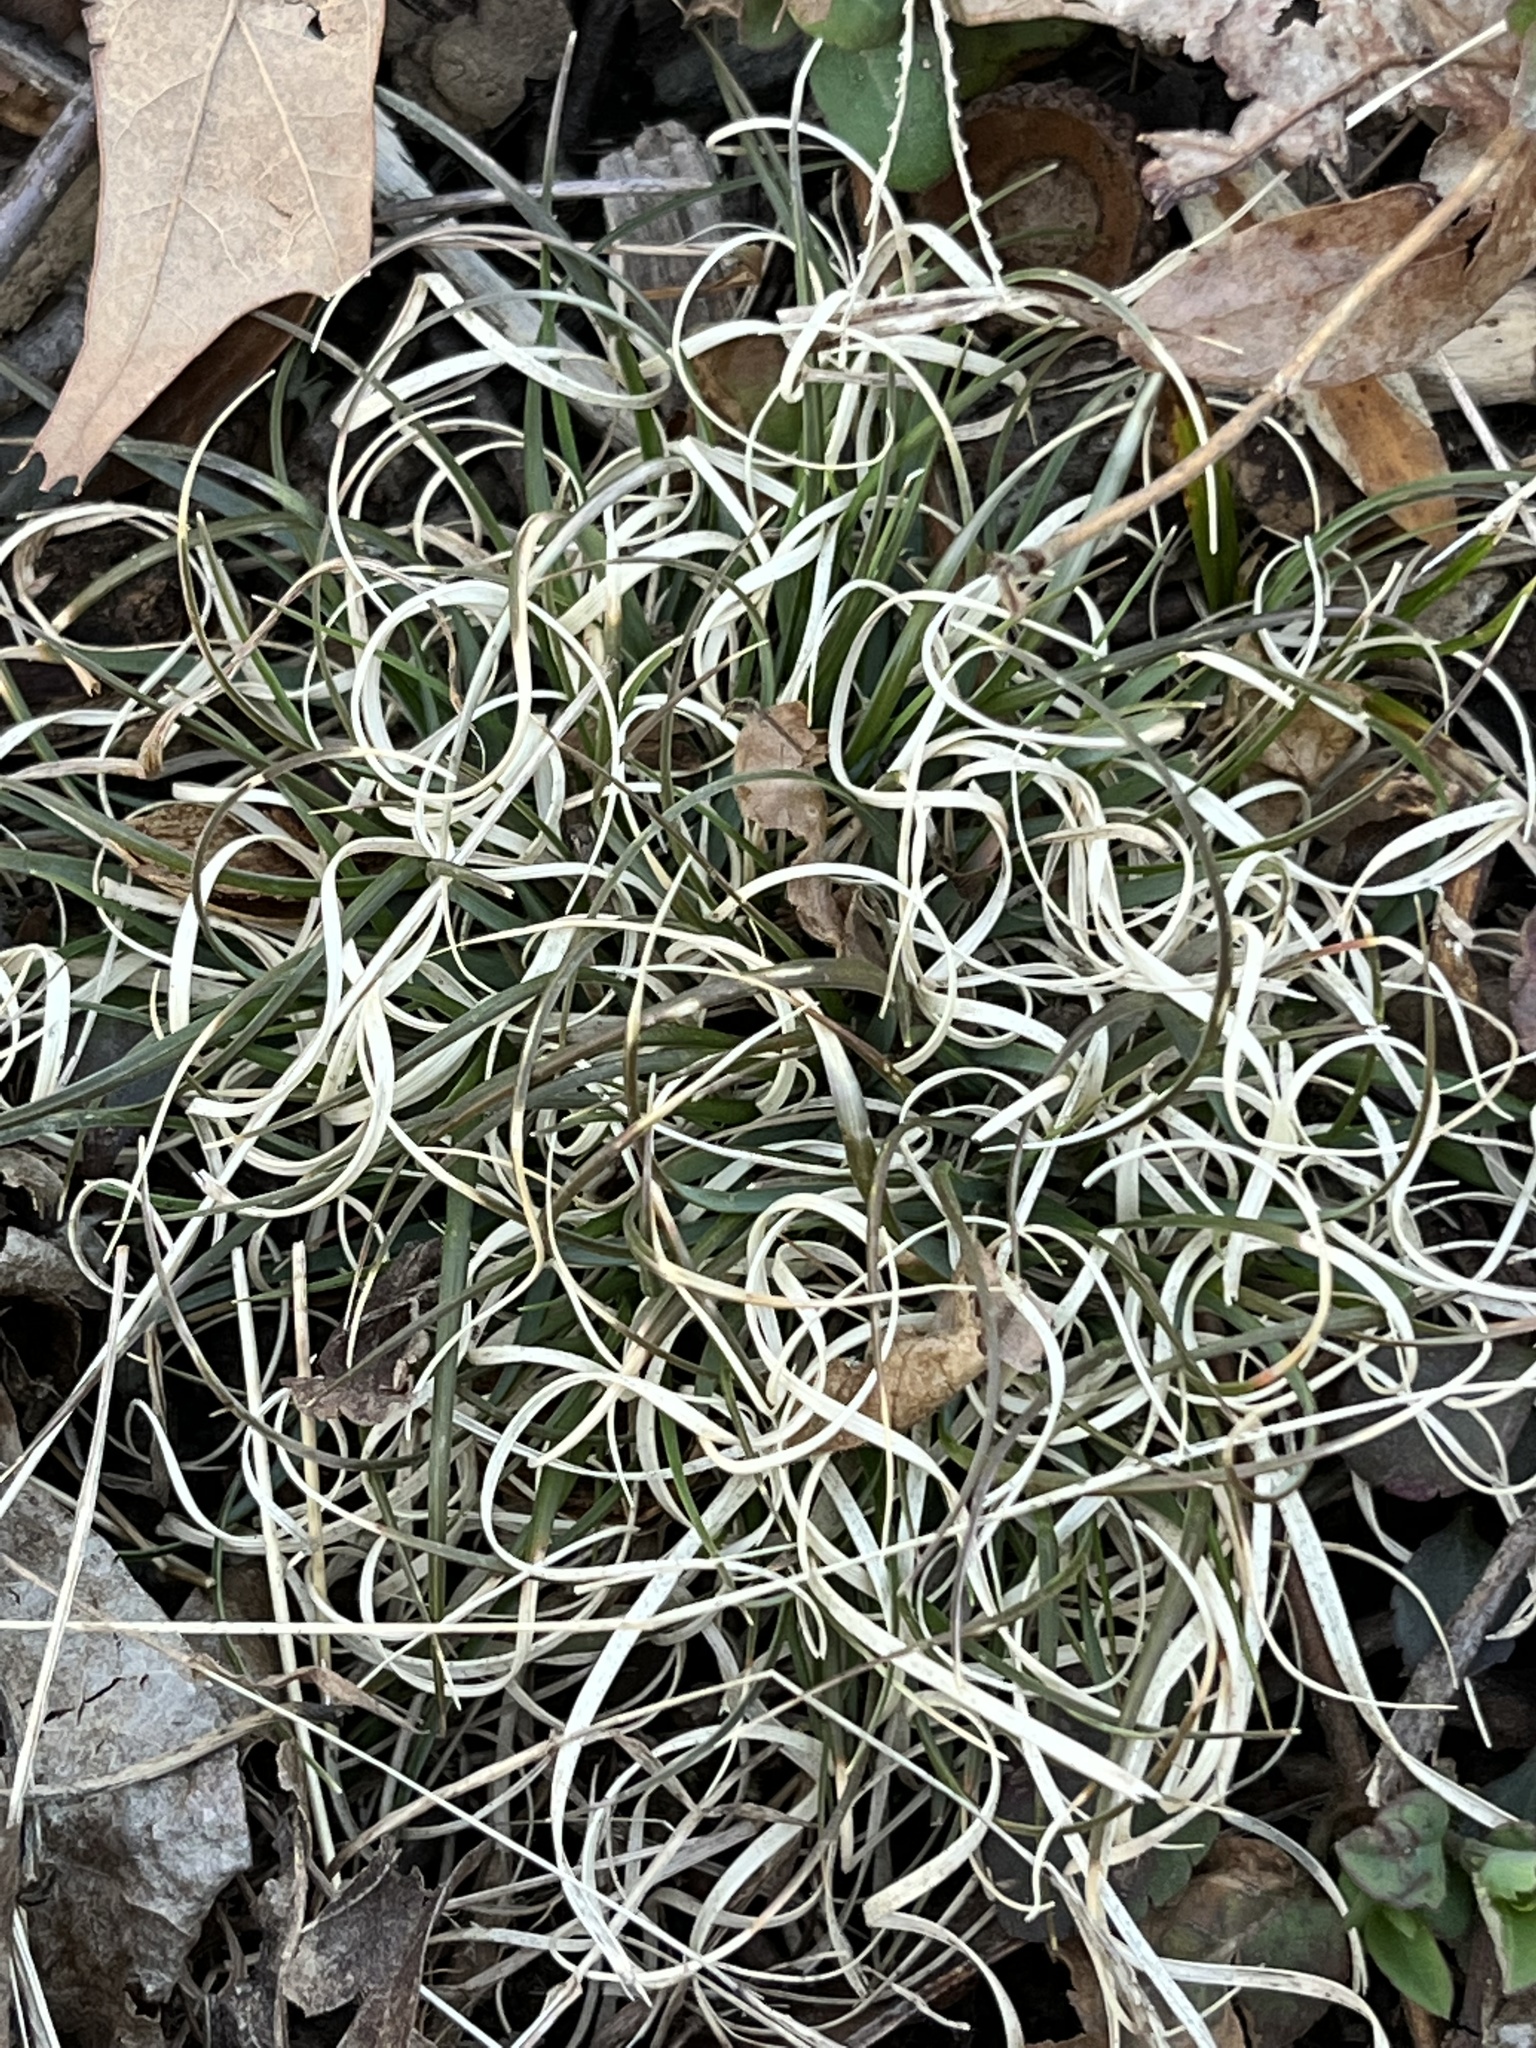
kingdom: Plantae
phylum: Tracheophyta
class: Liliopsida
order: Poales
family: Poaceae
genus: Danthonia
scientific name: Danthonia spicata
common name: Common wild oatgrass
